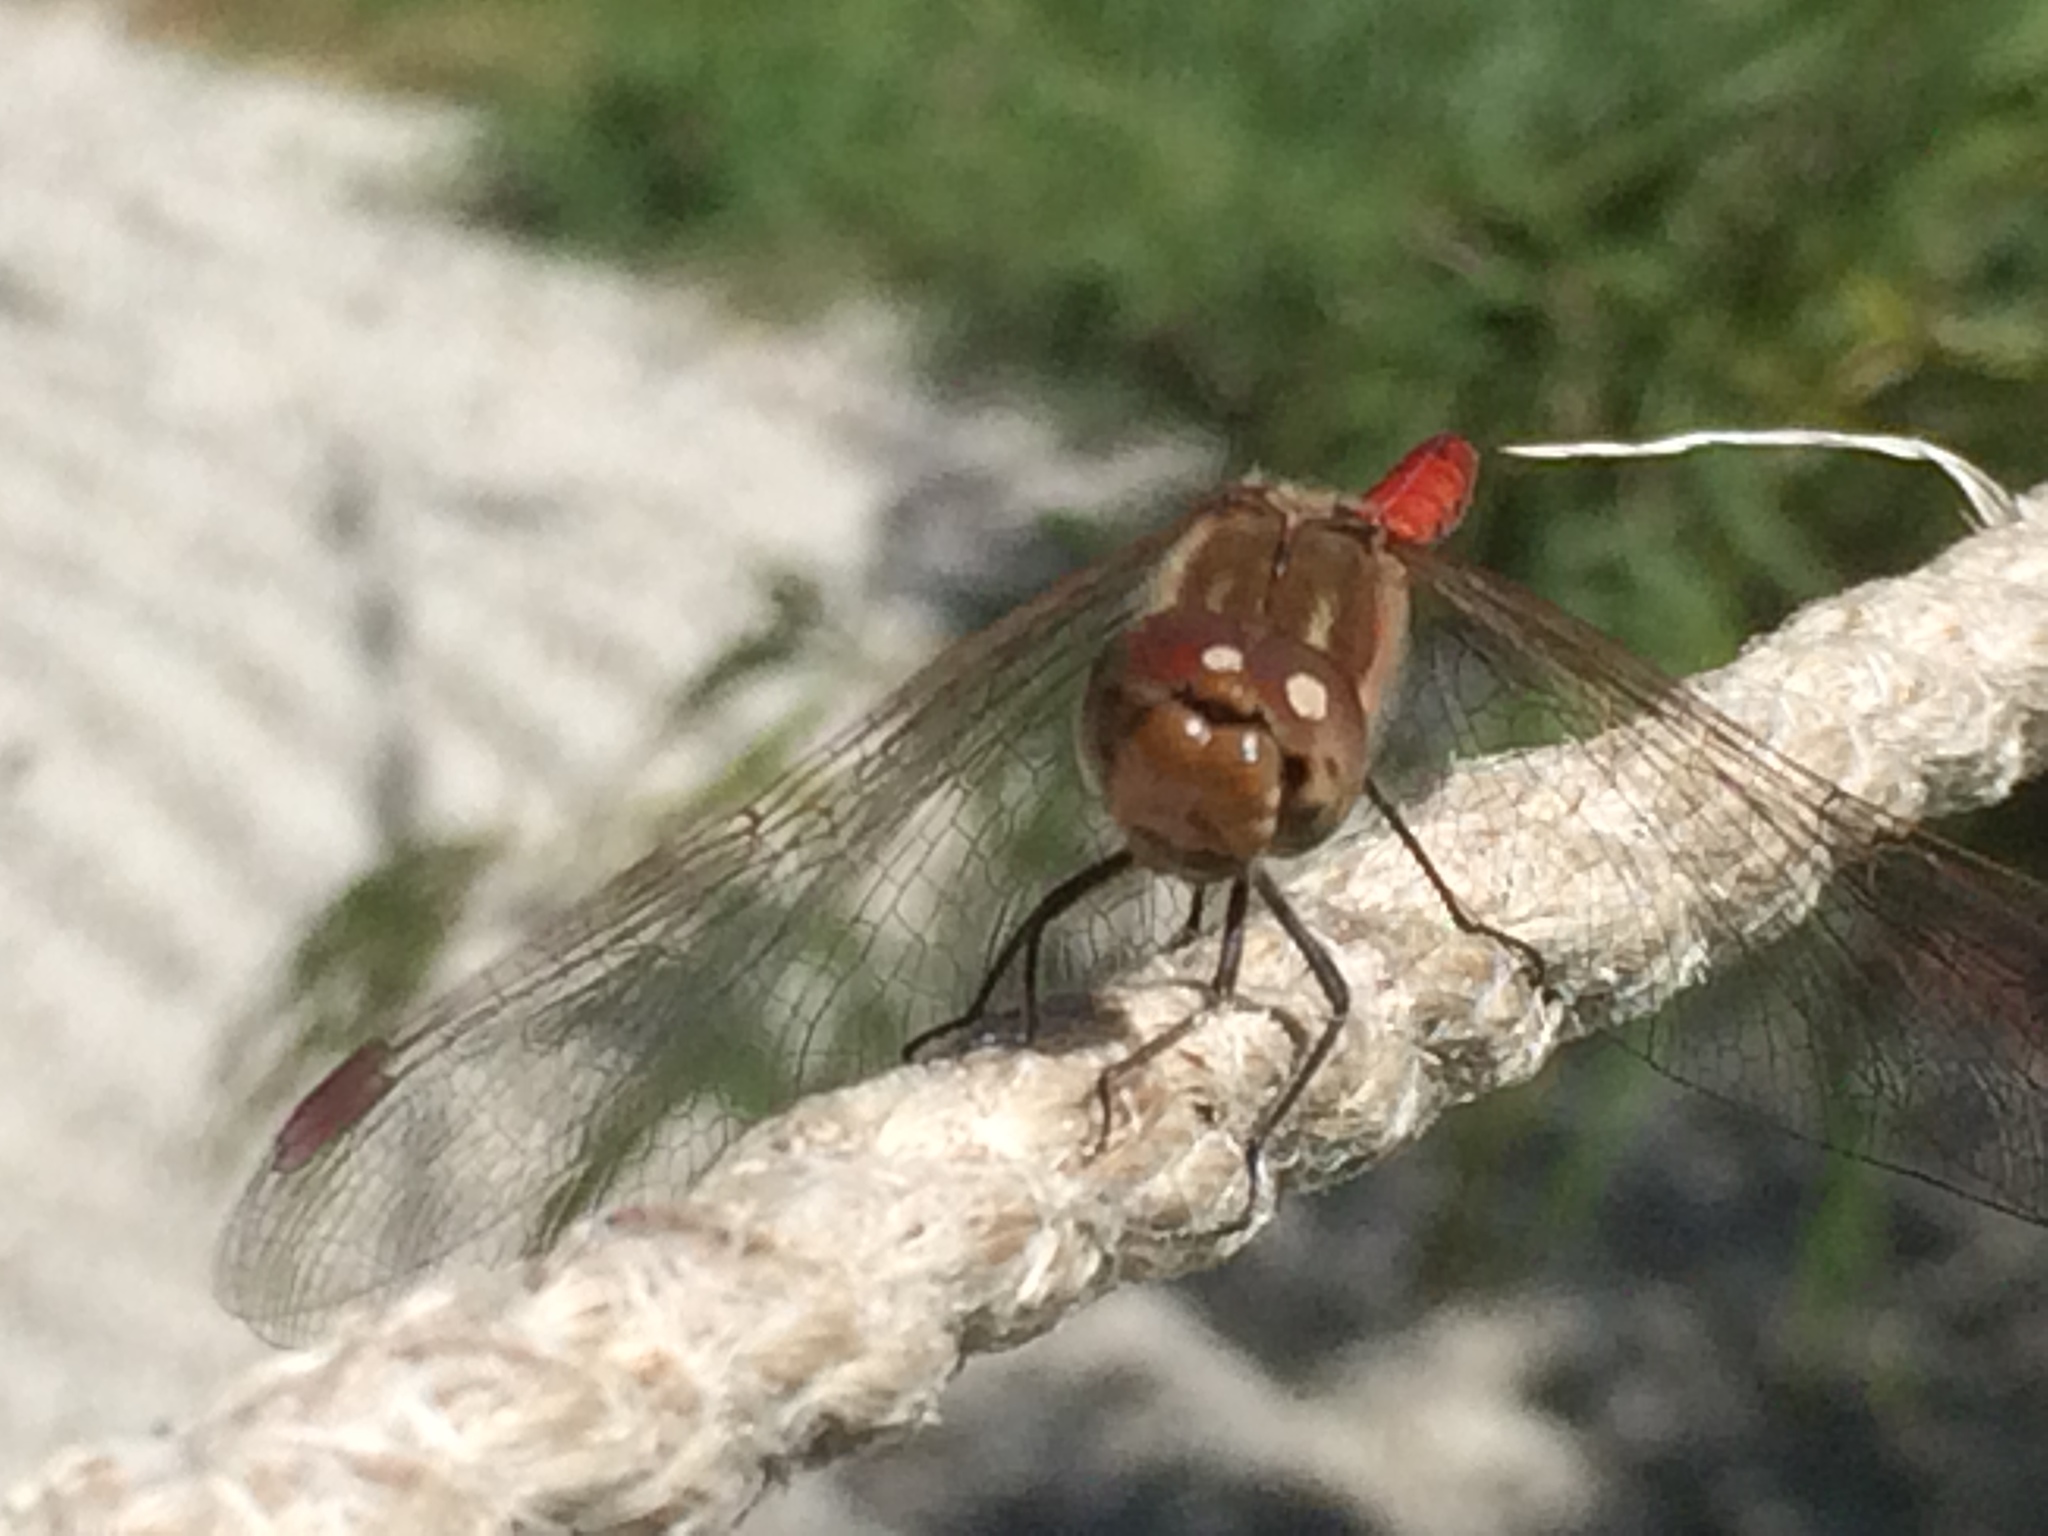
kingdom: Animalia
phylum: Arthropoda
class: Insecta
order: Odonata
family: Libellulidae
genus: Sympetrum
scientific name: Sympetrum striolatum
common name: Common darter
